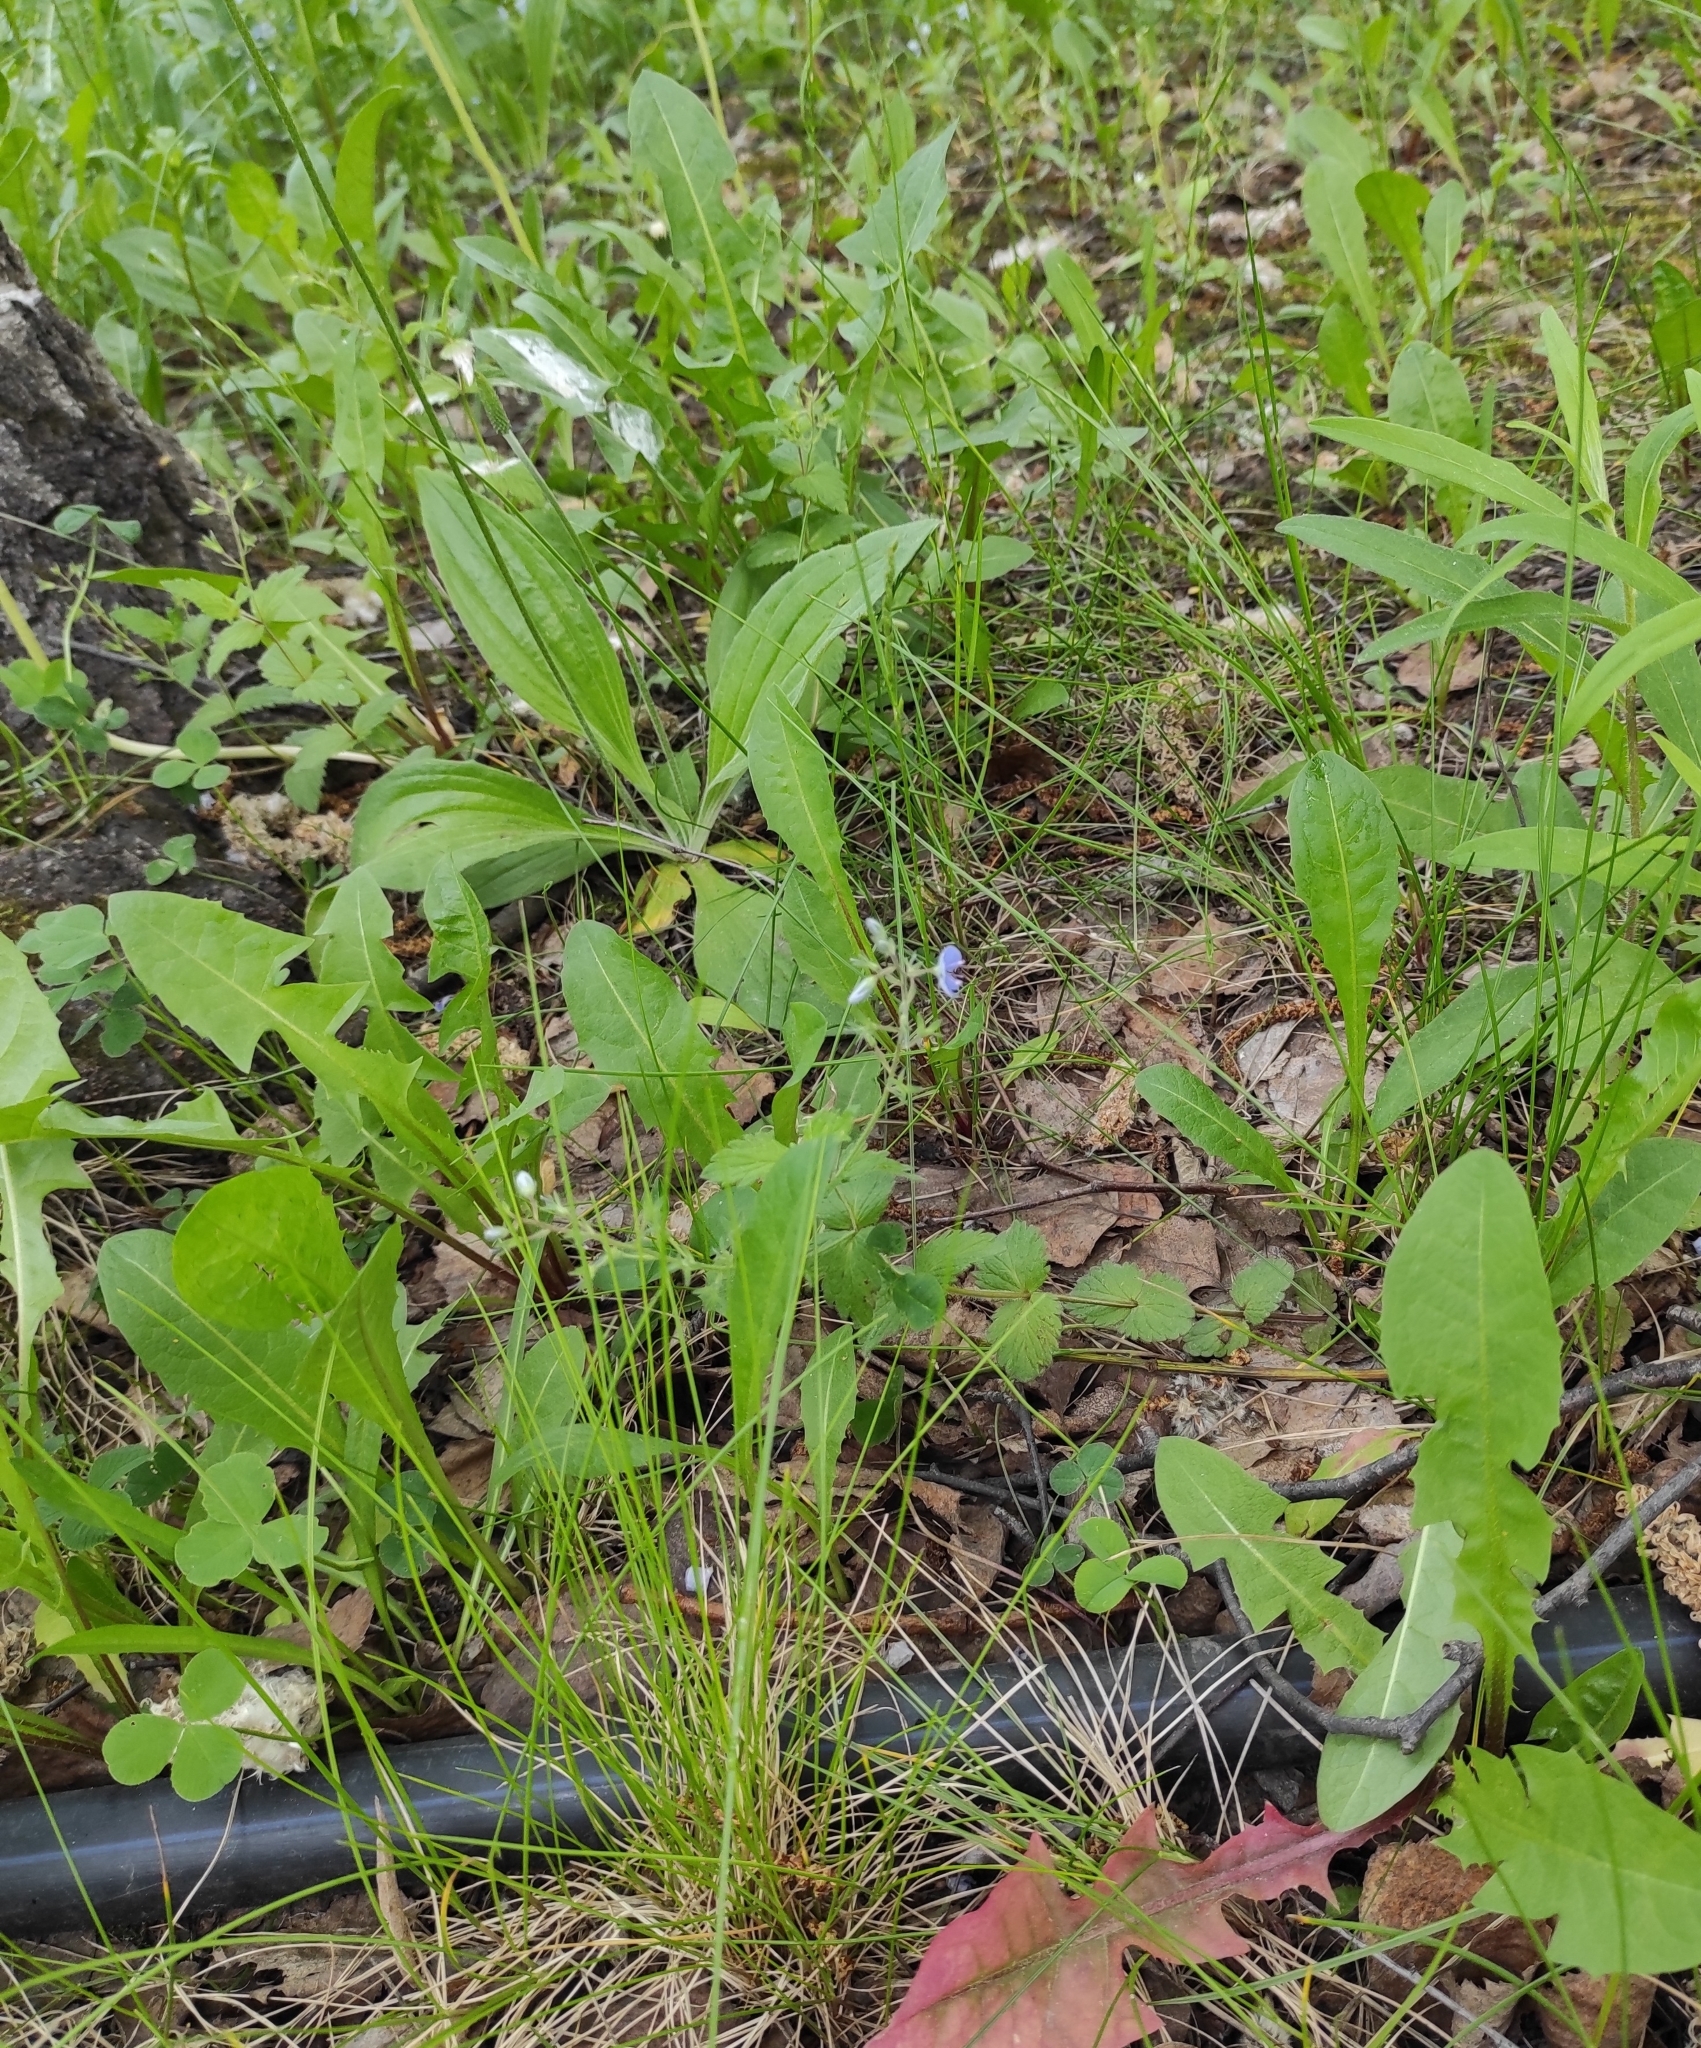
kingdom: Plantae
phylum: Tracheophyta
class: Magnoliopsida
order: Lamiales
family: Plantaginaceae
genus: Veronica
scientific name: Veronica chamaedrys
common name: Germander speedwell
